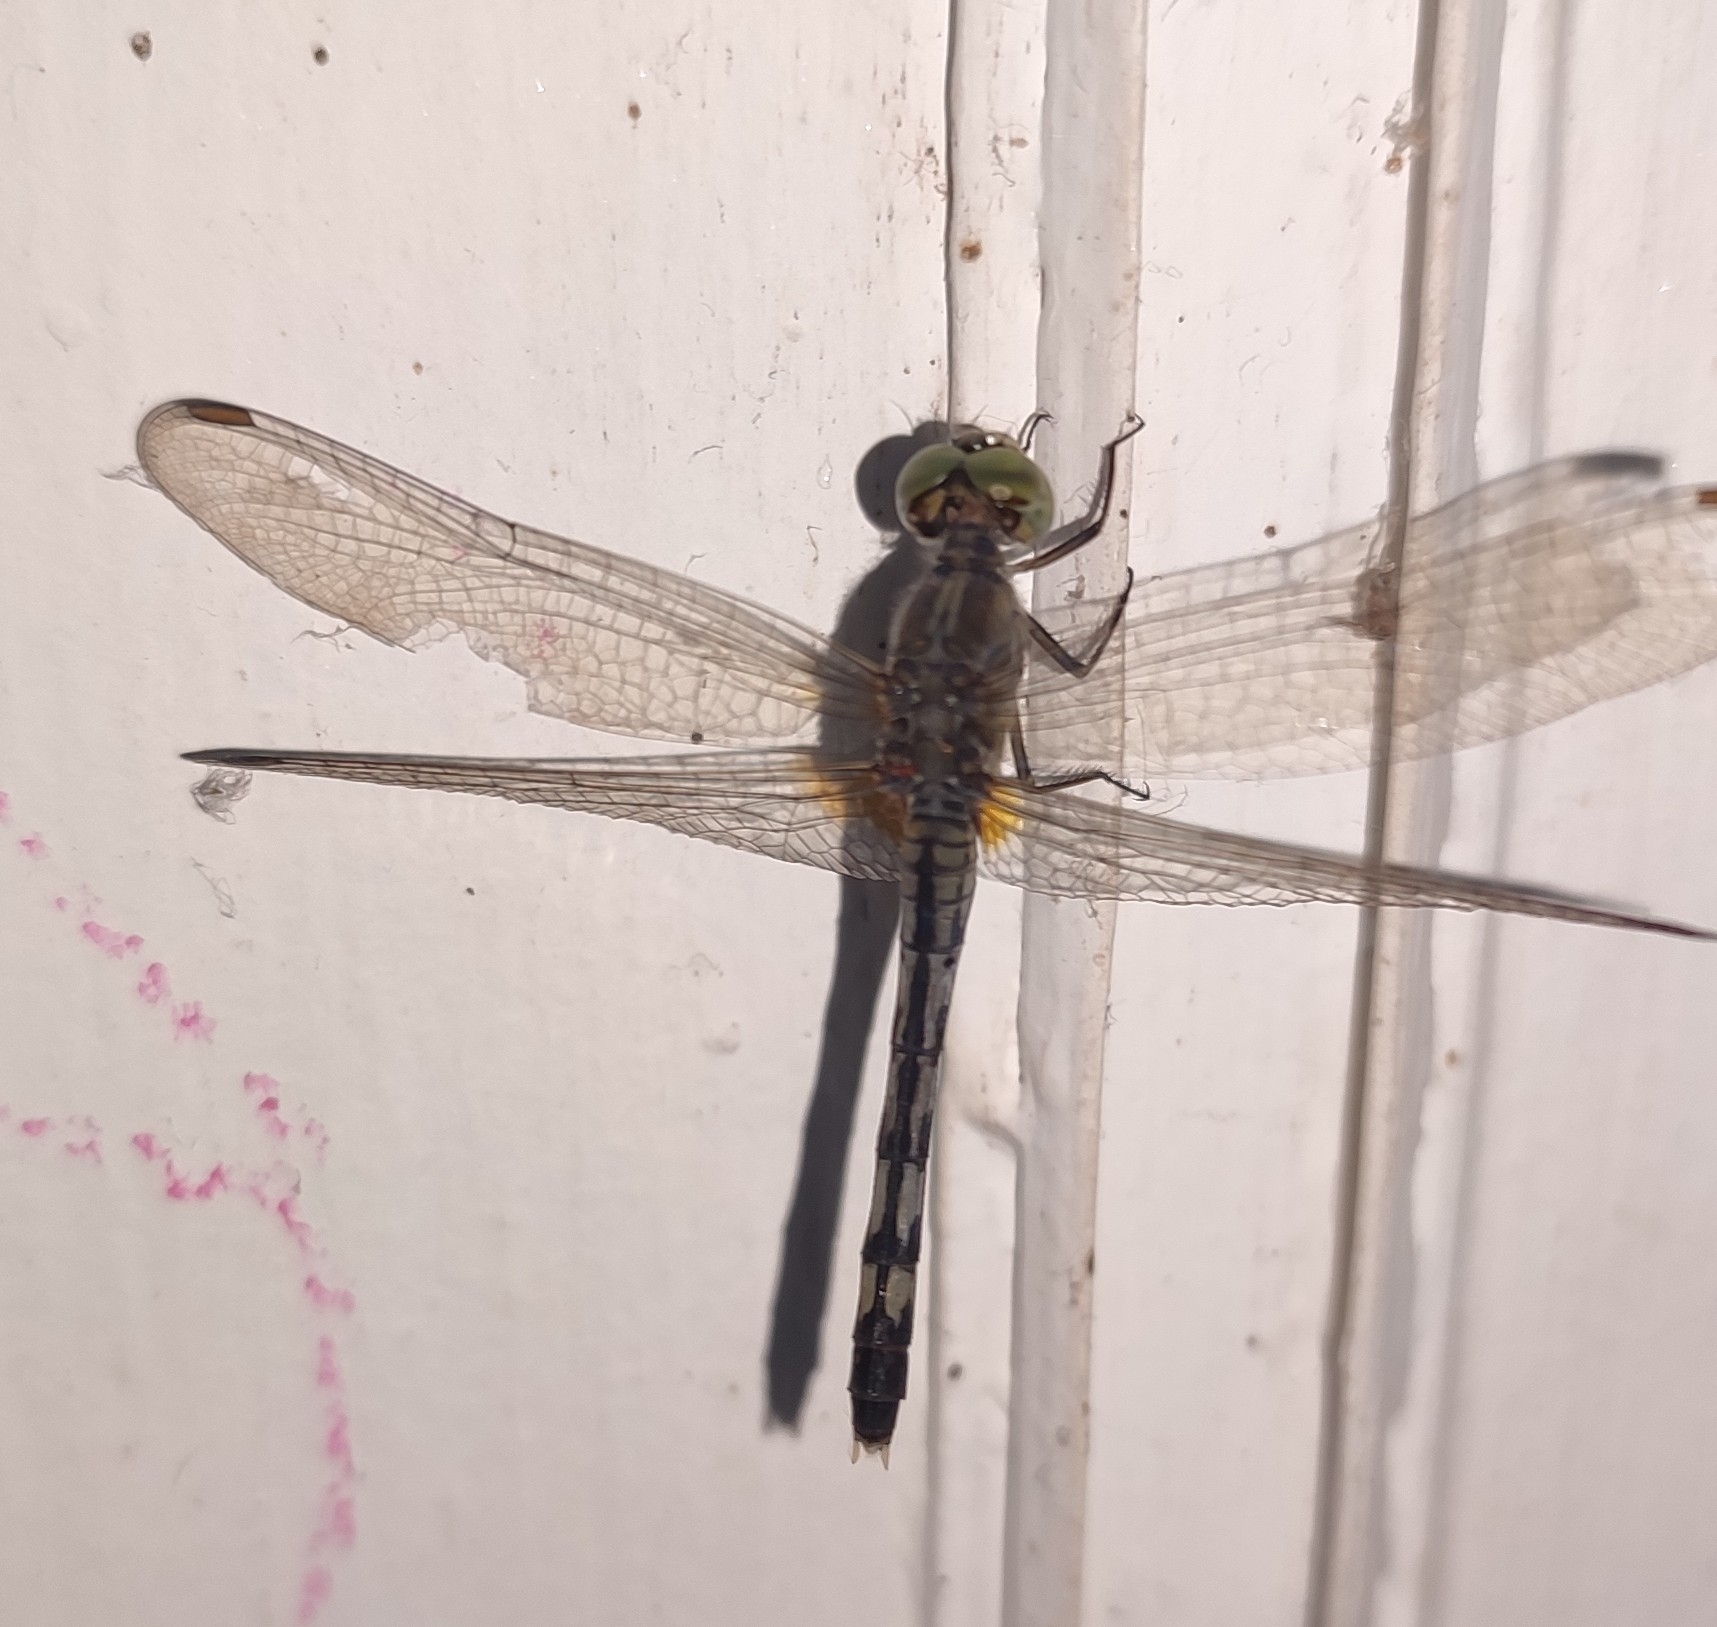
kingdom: Animalia
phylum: Arthropoda
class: Insecta
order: Odonata
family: Libellulidae
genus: Diplacodes
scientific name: Diplacodes trivialis
